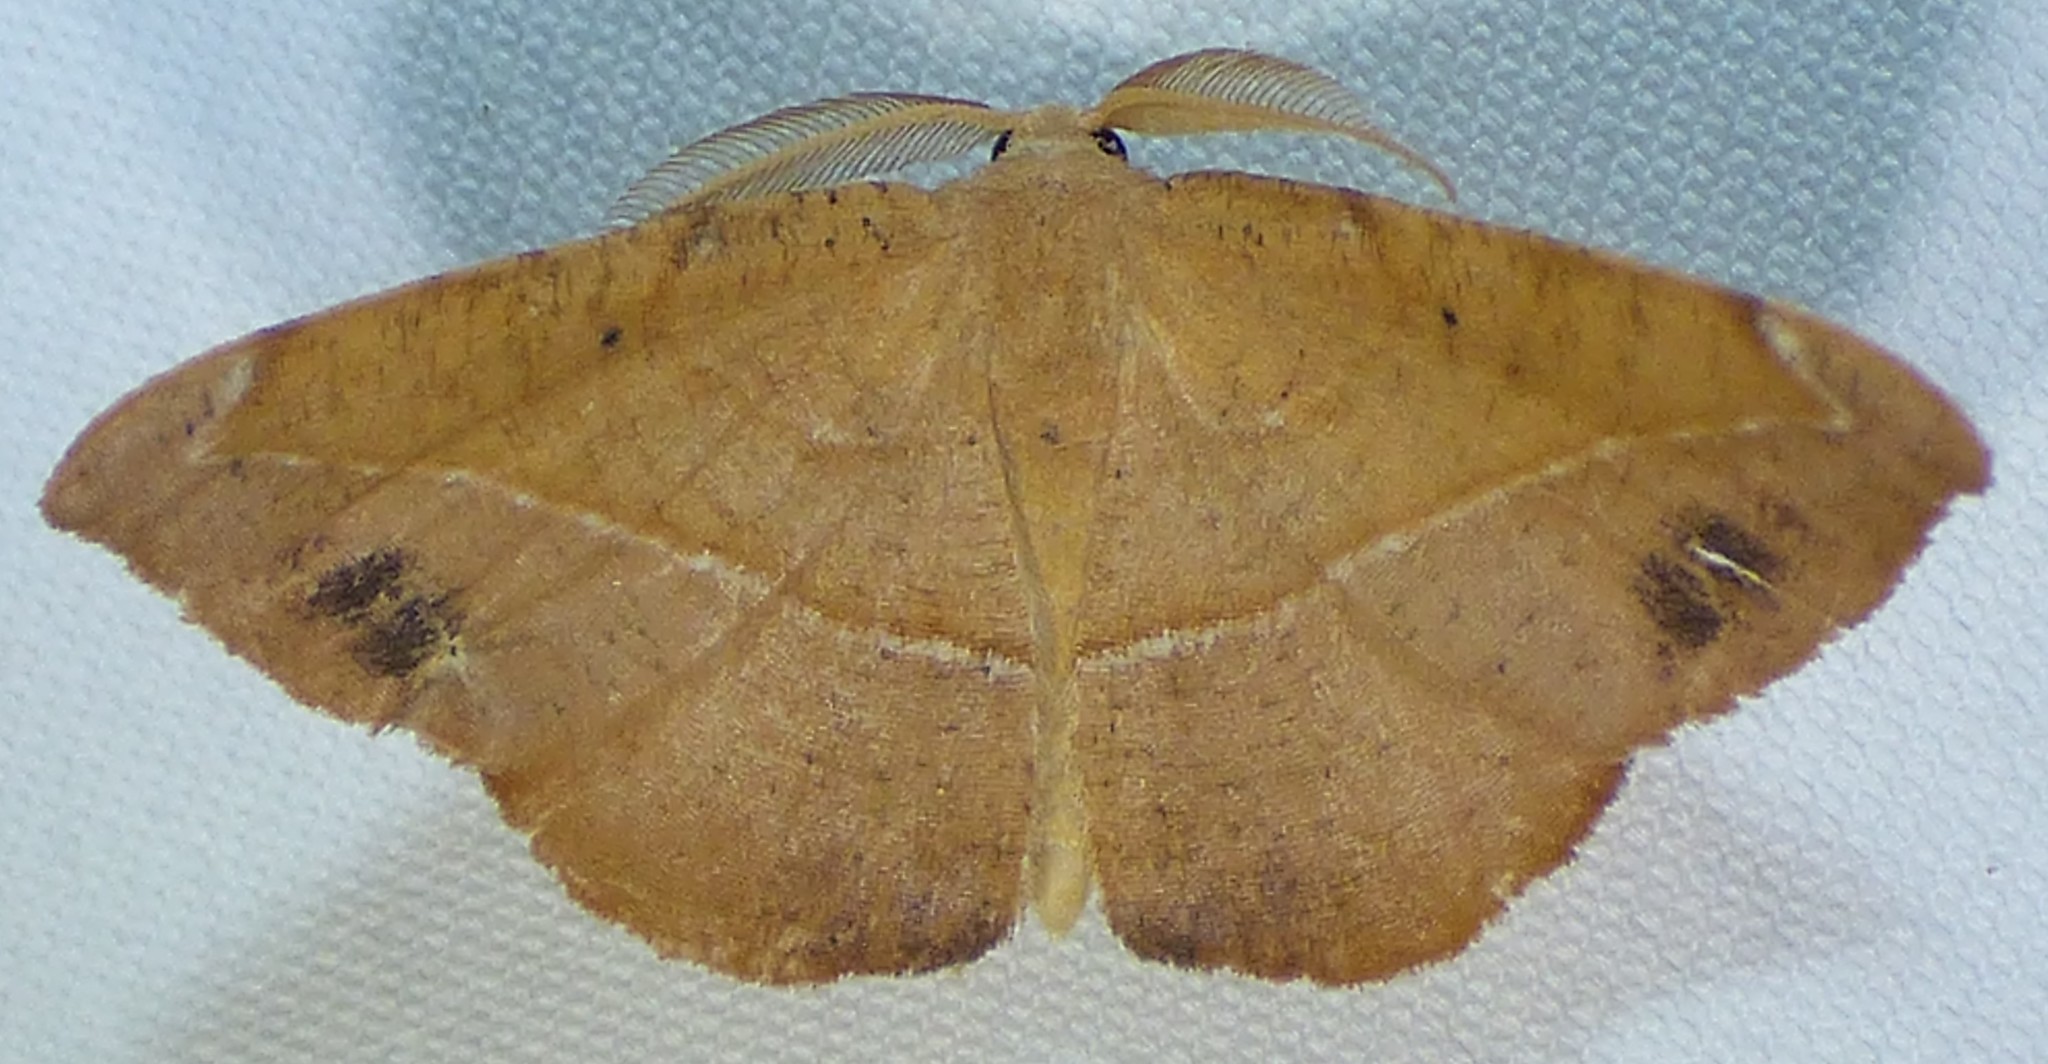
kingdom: Animalia
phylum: Arthropoda
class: Insecta
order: Lepidoptera
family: Geometridae
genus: Patalene
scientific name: Patalene olyzonaria
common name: Juniper geometer moth
